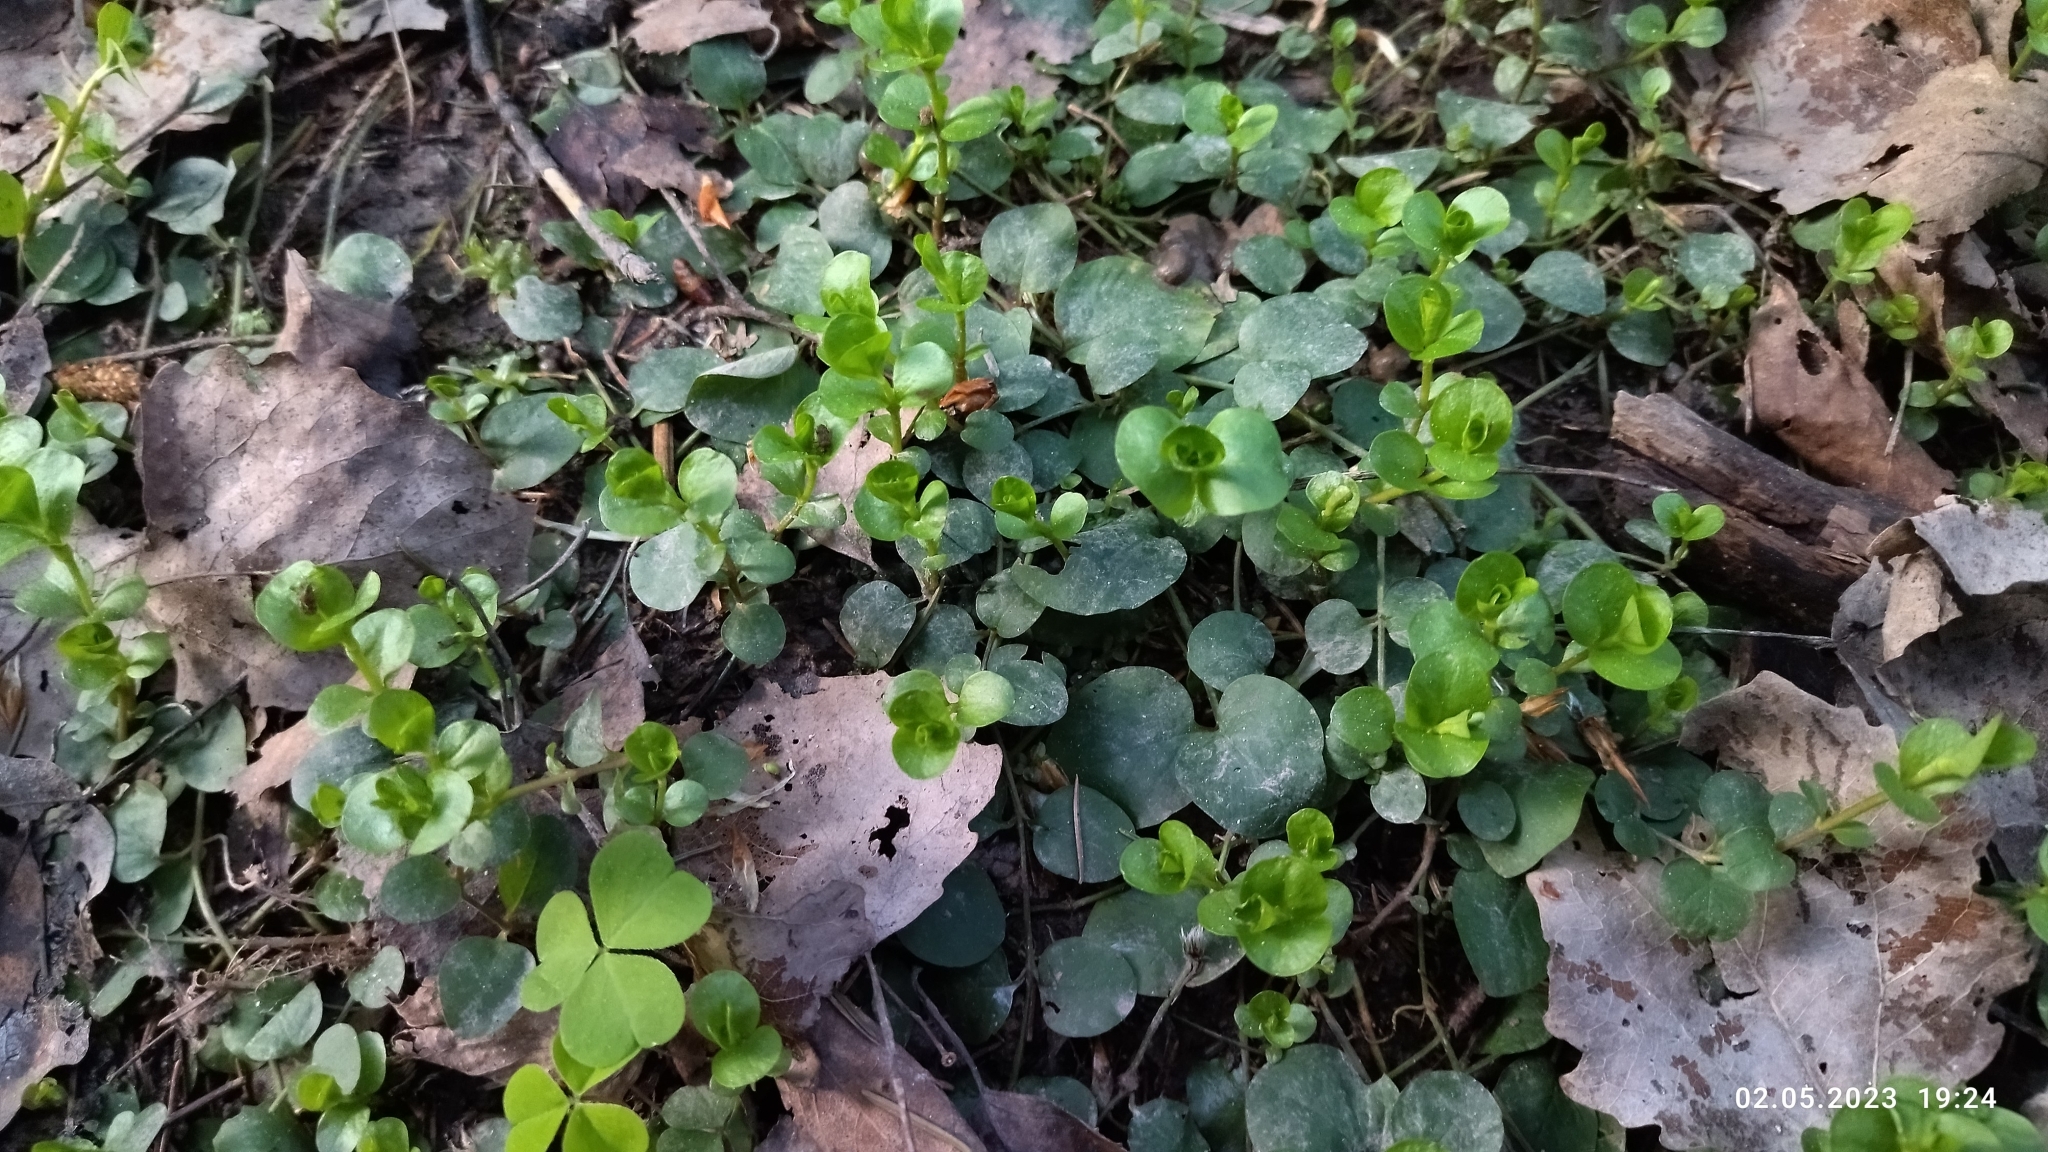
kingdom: Plantae
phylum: Tracheophyta
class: Magnoliopsida
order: Ericales
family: Primulaceae
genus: Lysimachia
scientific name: Lysimachia nummularia
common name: Moneywort
